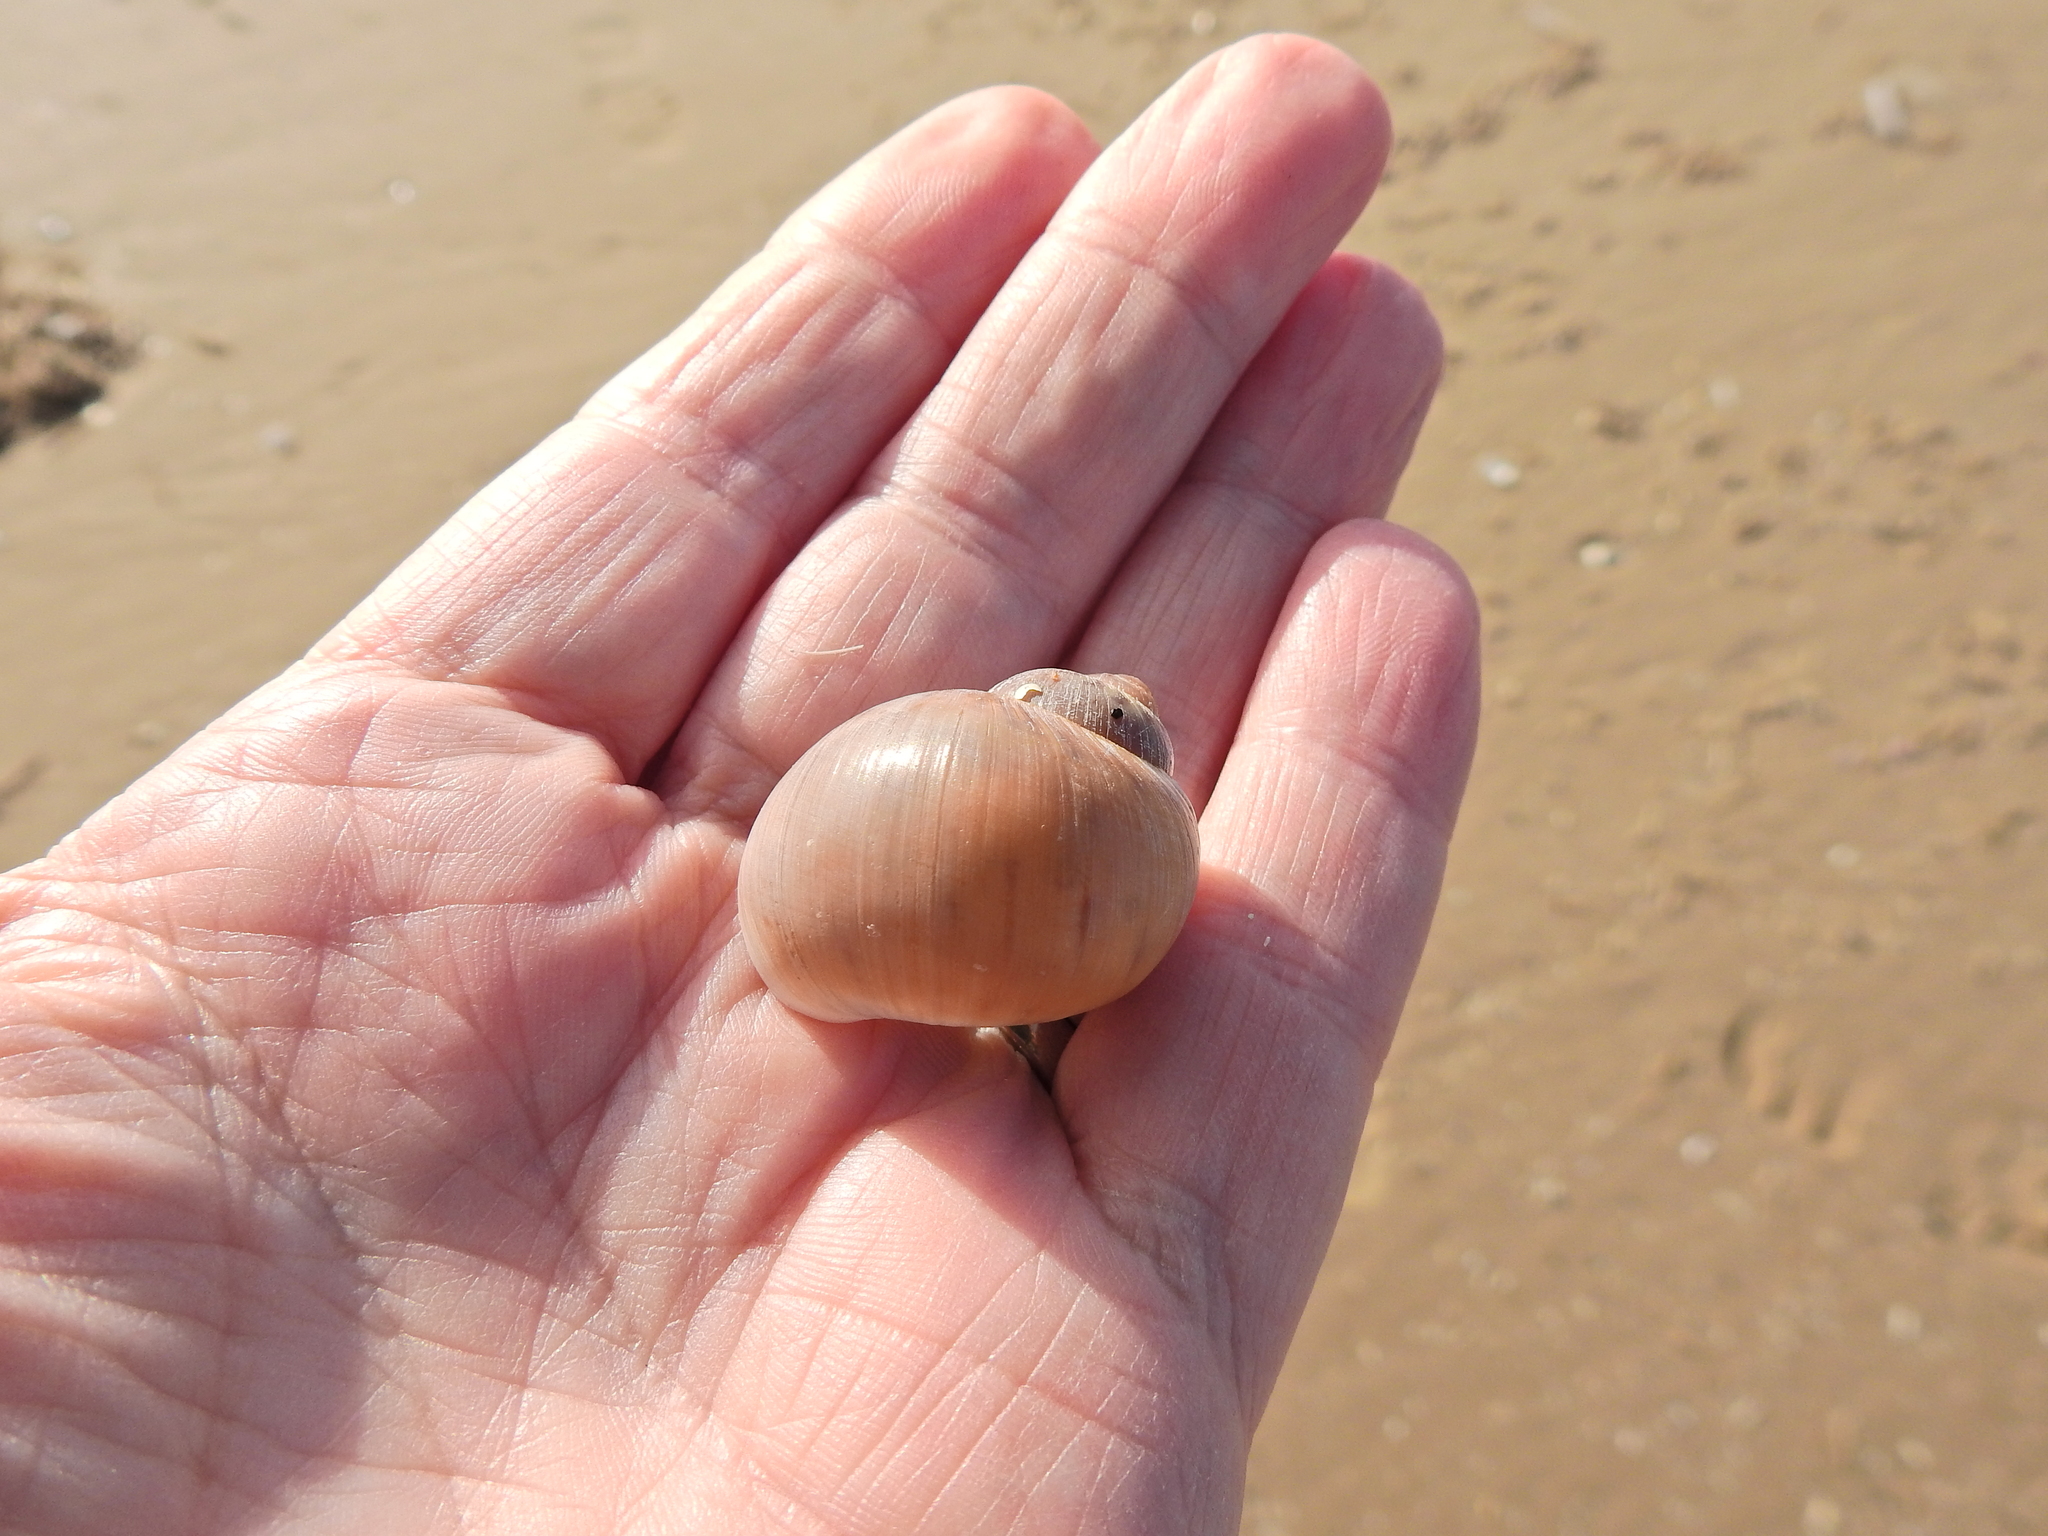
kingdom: Animalia
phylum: Mollusca
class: Gastropoda
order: Littorinimorpha
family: Naticidae
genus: Euspira
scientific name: Euspira catena
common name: Necklace shell
